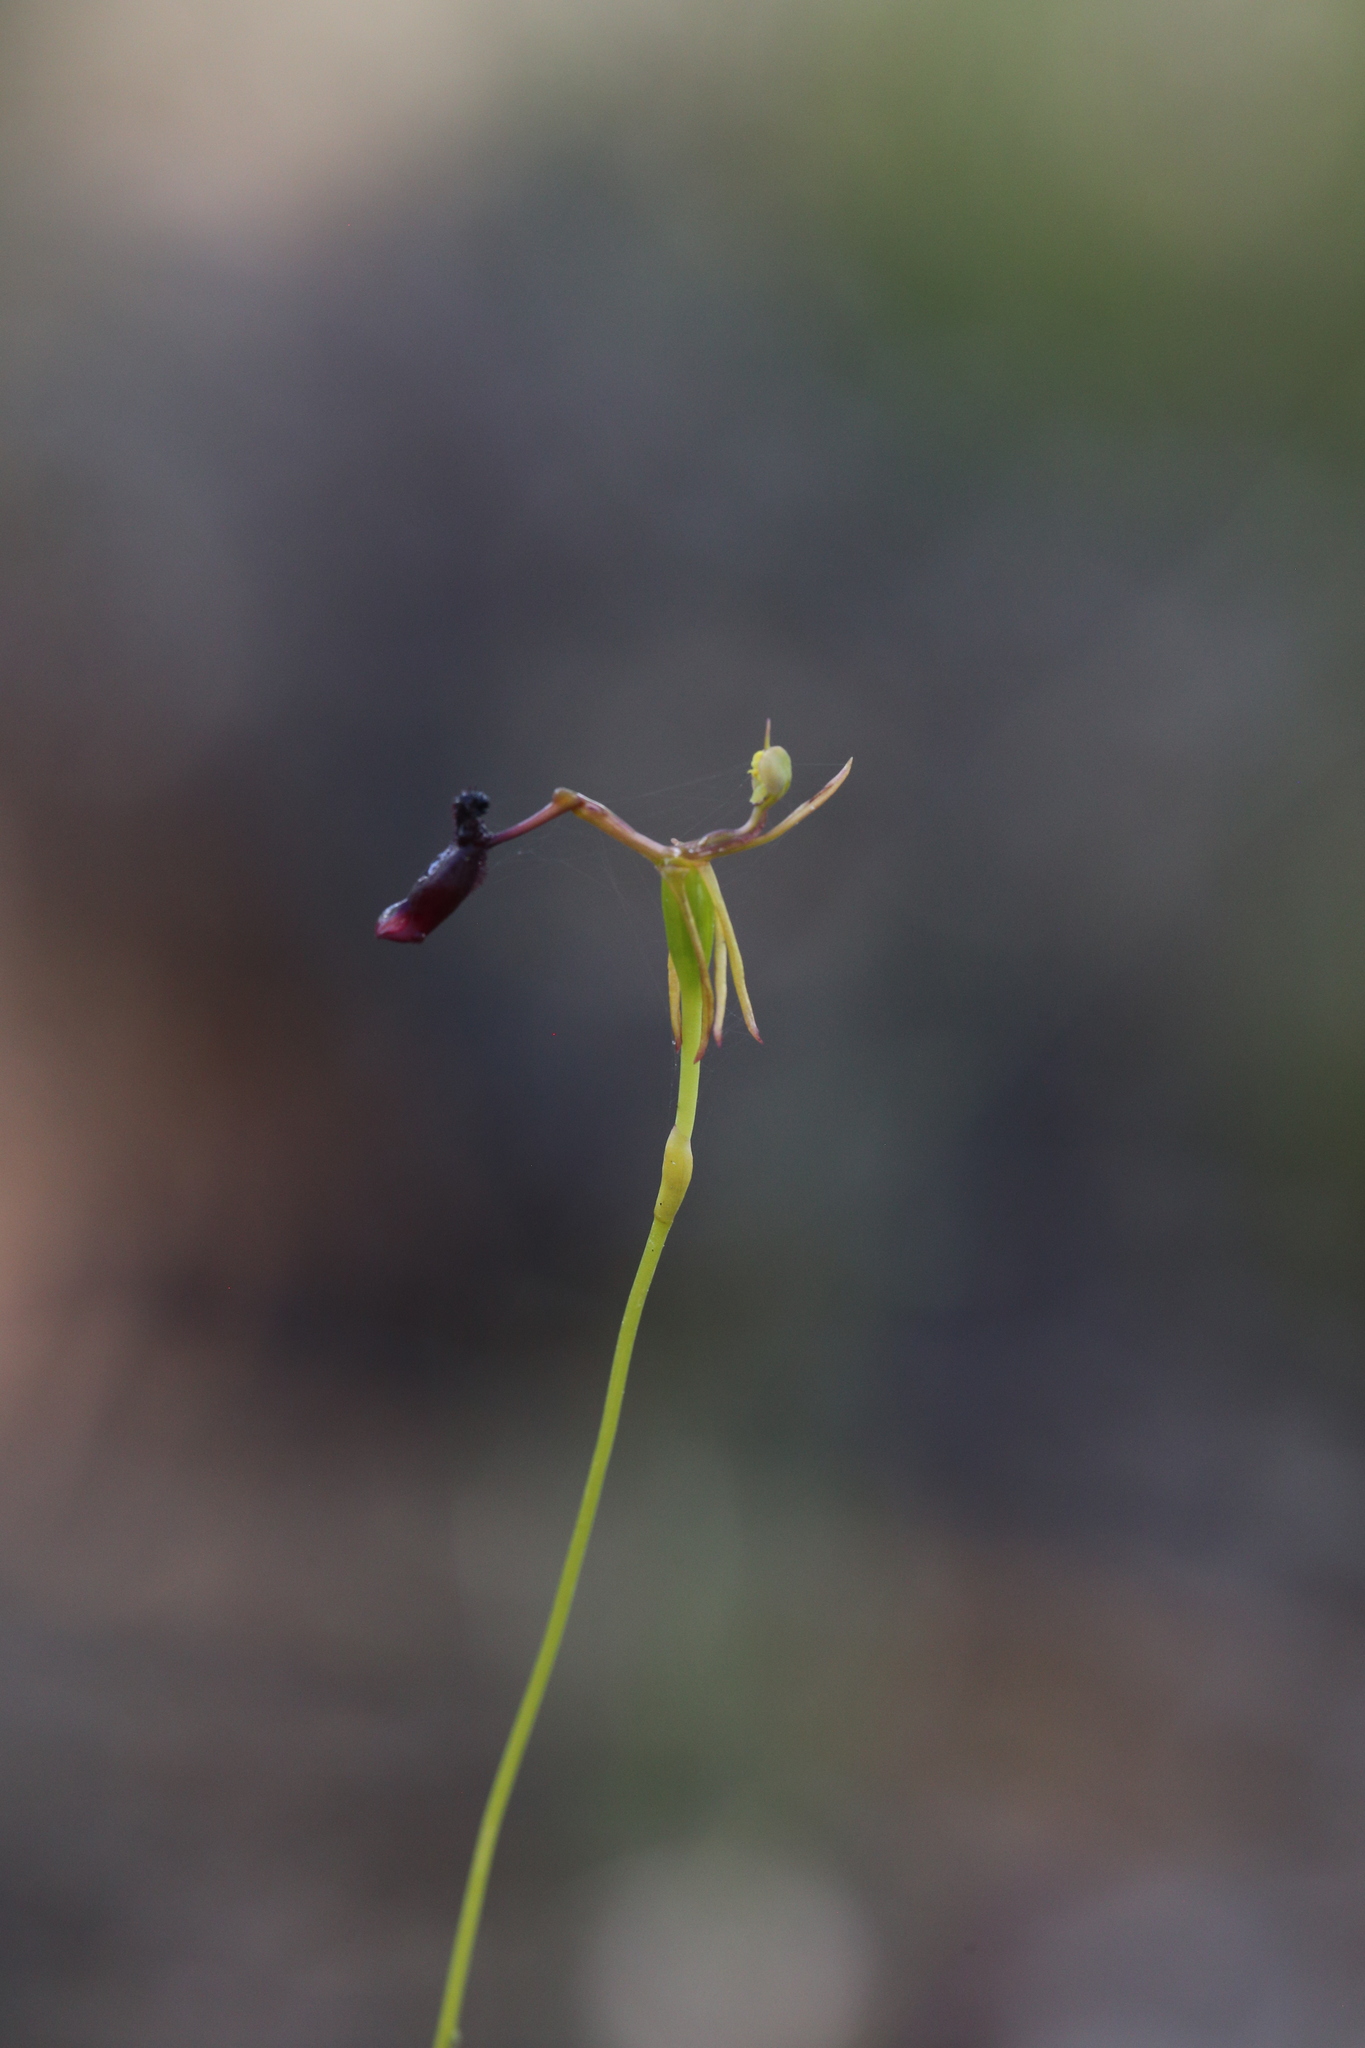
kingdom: Plantae
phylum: Tracheophyta
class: Liliopsida
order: Asparagales
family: Orchidaceae
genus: Drakaea
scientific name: Drakaea thynniphila
